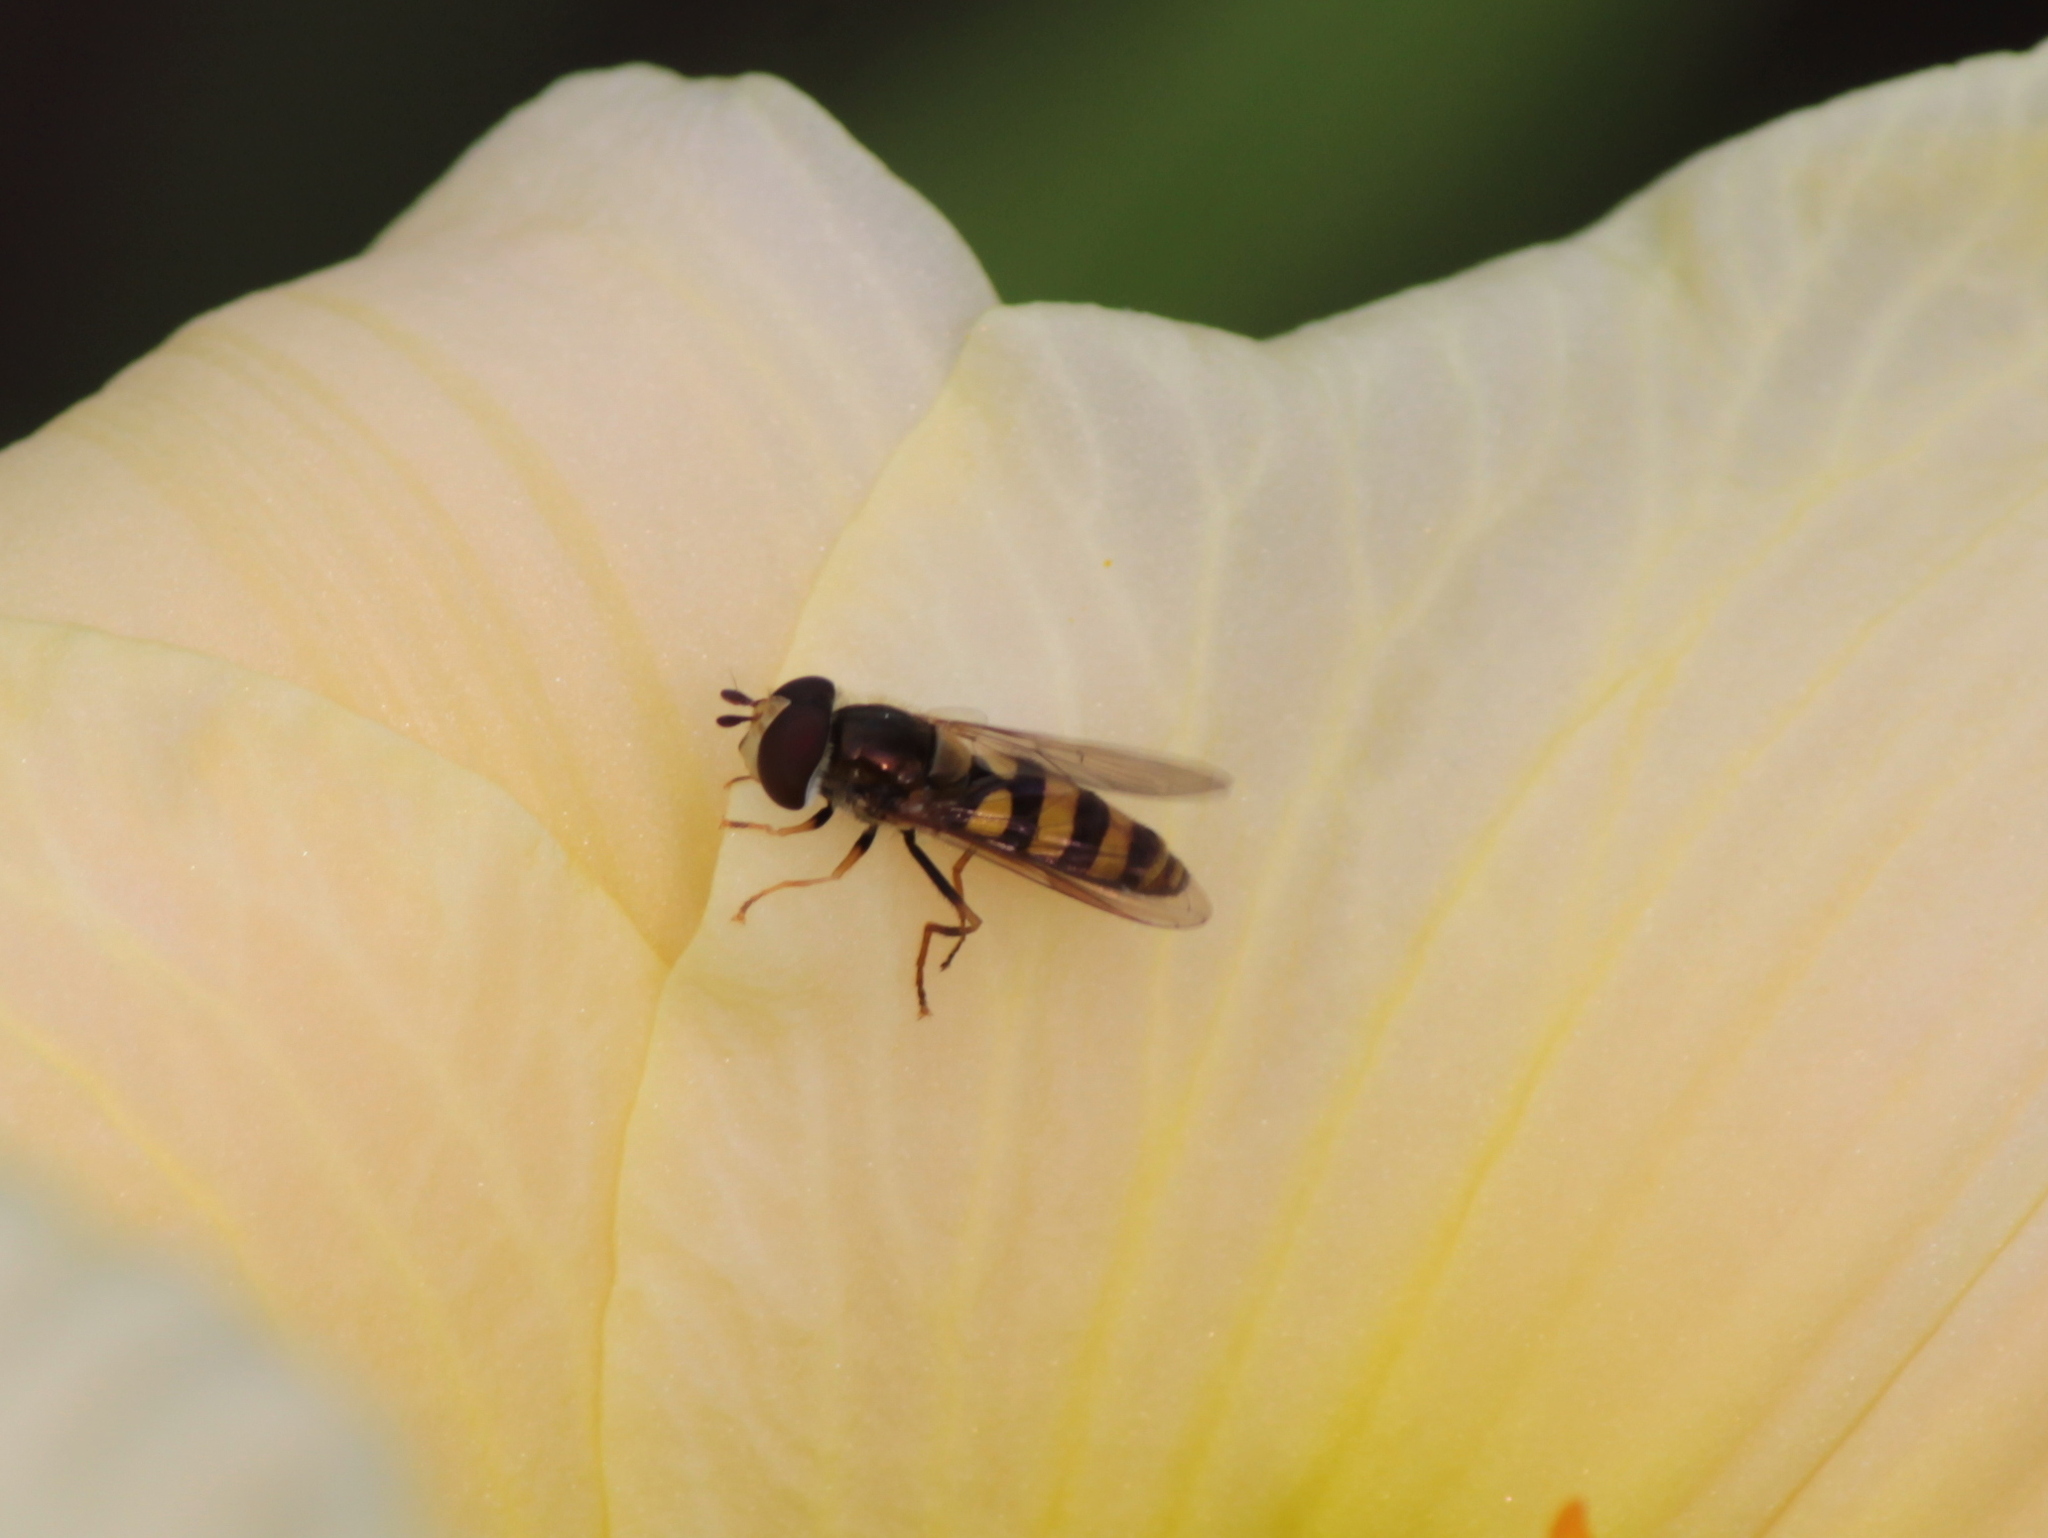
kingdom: Animalia
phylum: Arthropoda
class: Insecta
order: Diptera
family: Syrphidae
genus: Eupeodes
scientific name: Eupeodes
